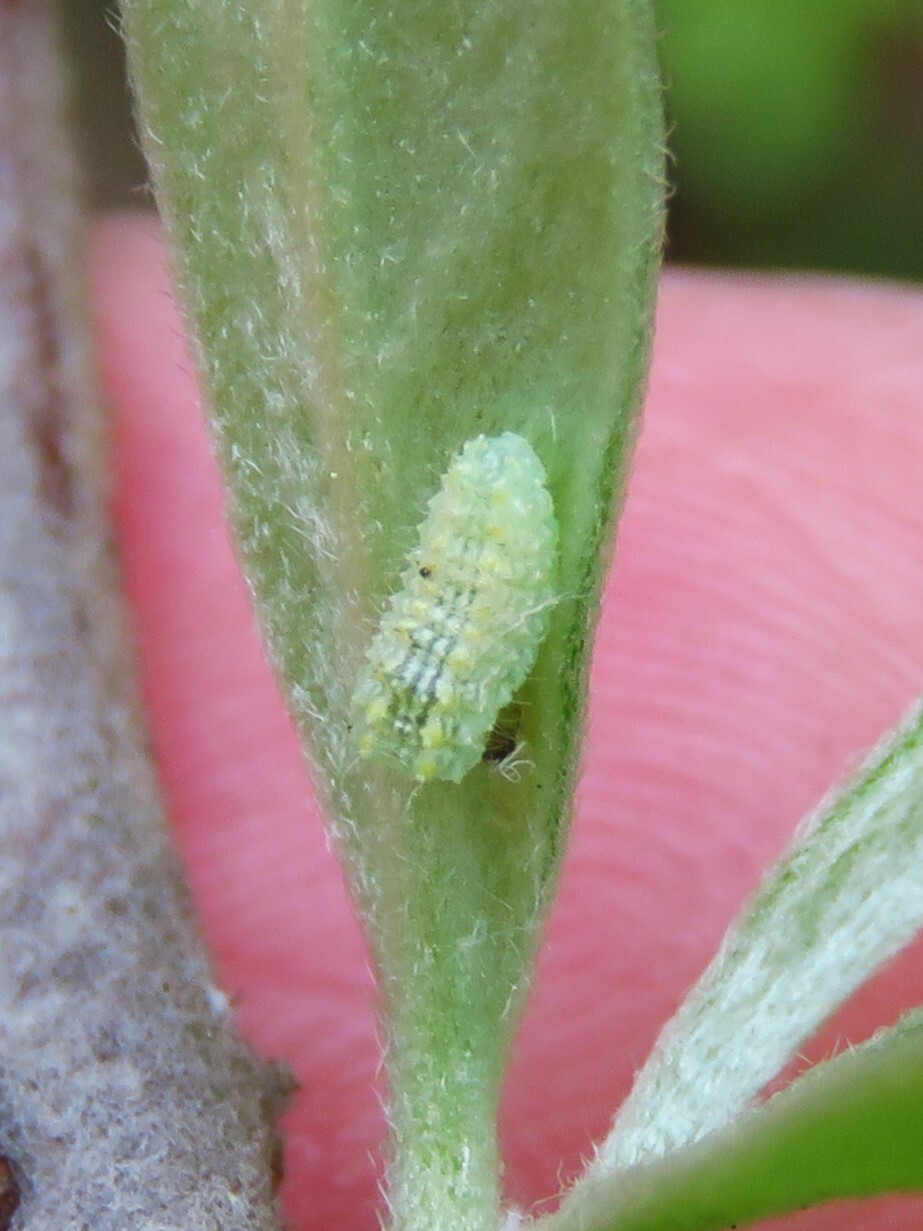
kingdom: Animalia
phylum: Arthropoda
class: Insecta
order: Lepidoptera
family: Lacturidae
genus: Lactura
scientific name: Lactura
